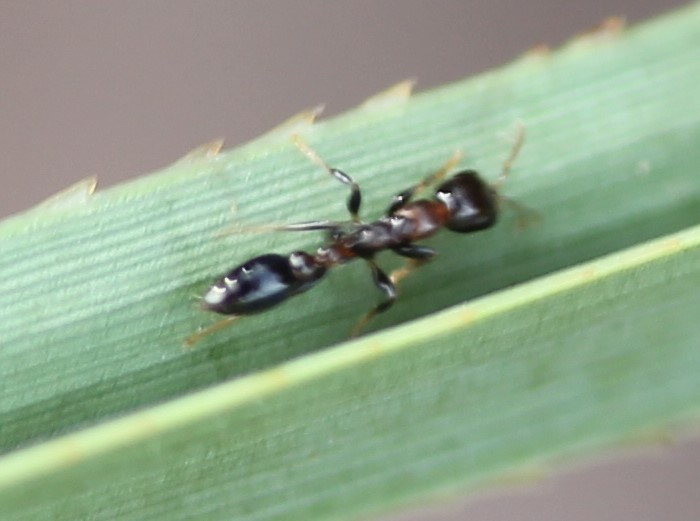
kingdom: Animalia
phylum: Arthropoda
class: Insecta
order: Hymenoptera
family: Formicidae
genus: Pseudomyrmex
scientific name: Pseudomyrmex ejectus
